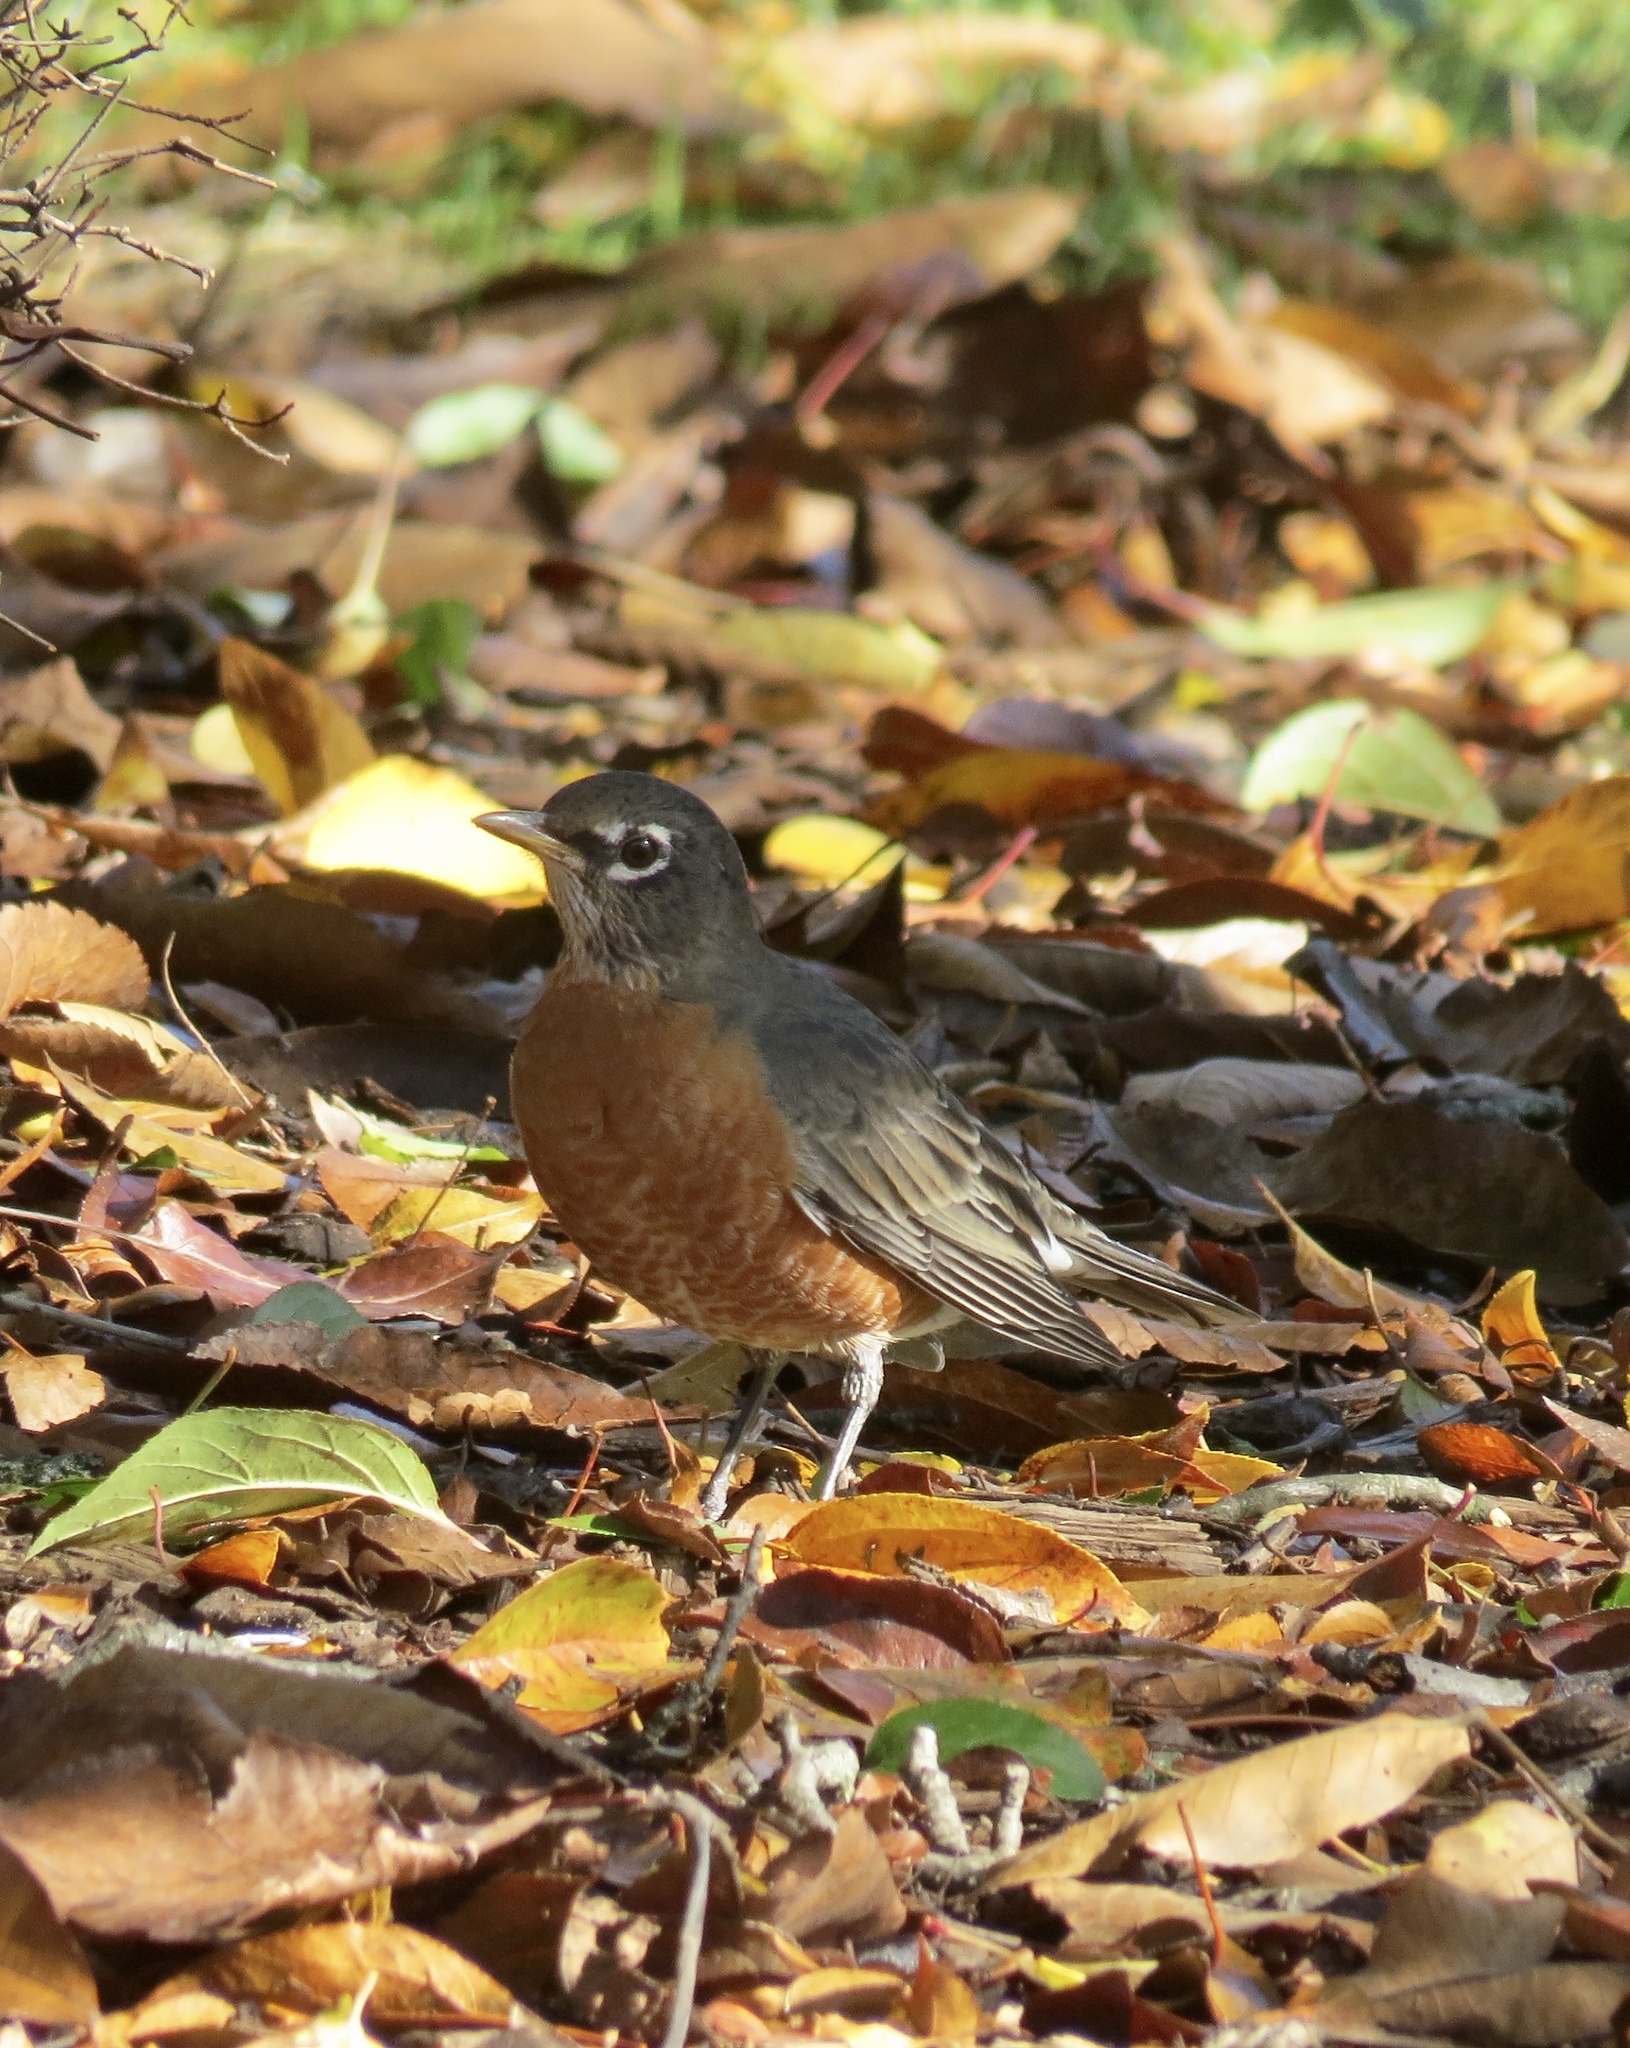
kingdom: Animalia
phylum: Chordata
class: Aves
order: Passeriformes
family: Turdidae
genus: Turdus
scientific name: Turdus migratorius
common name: American robin
